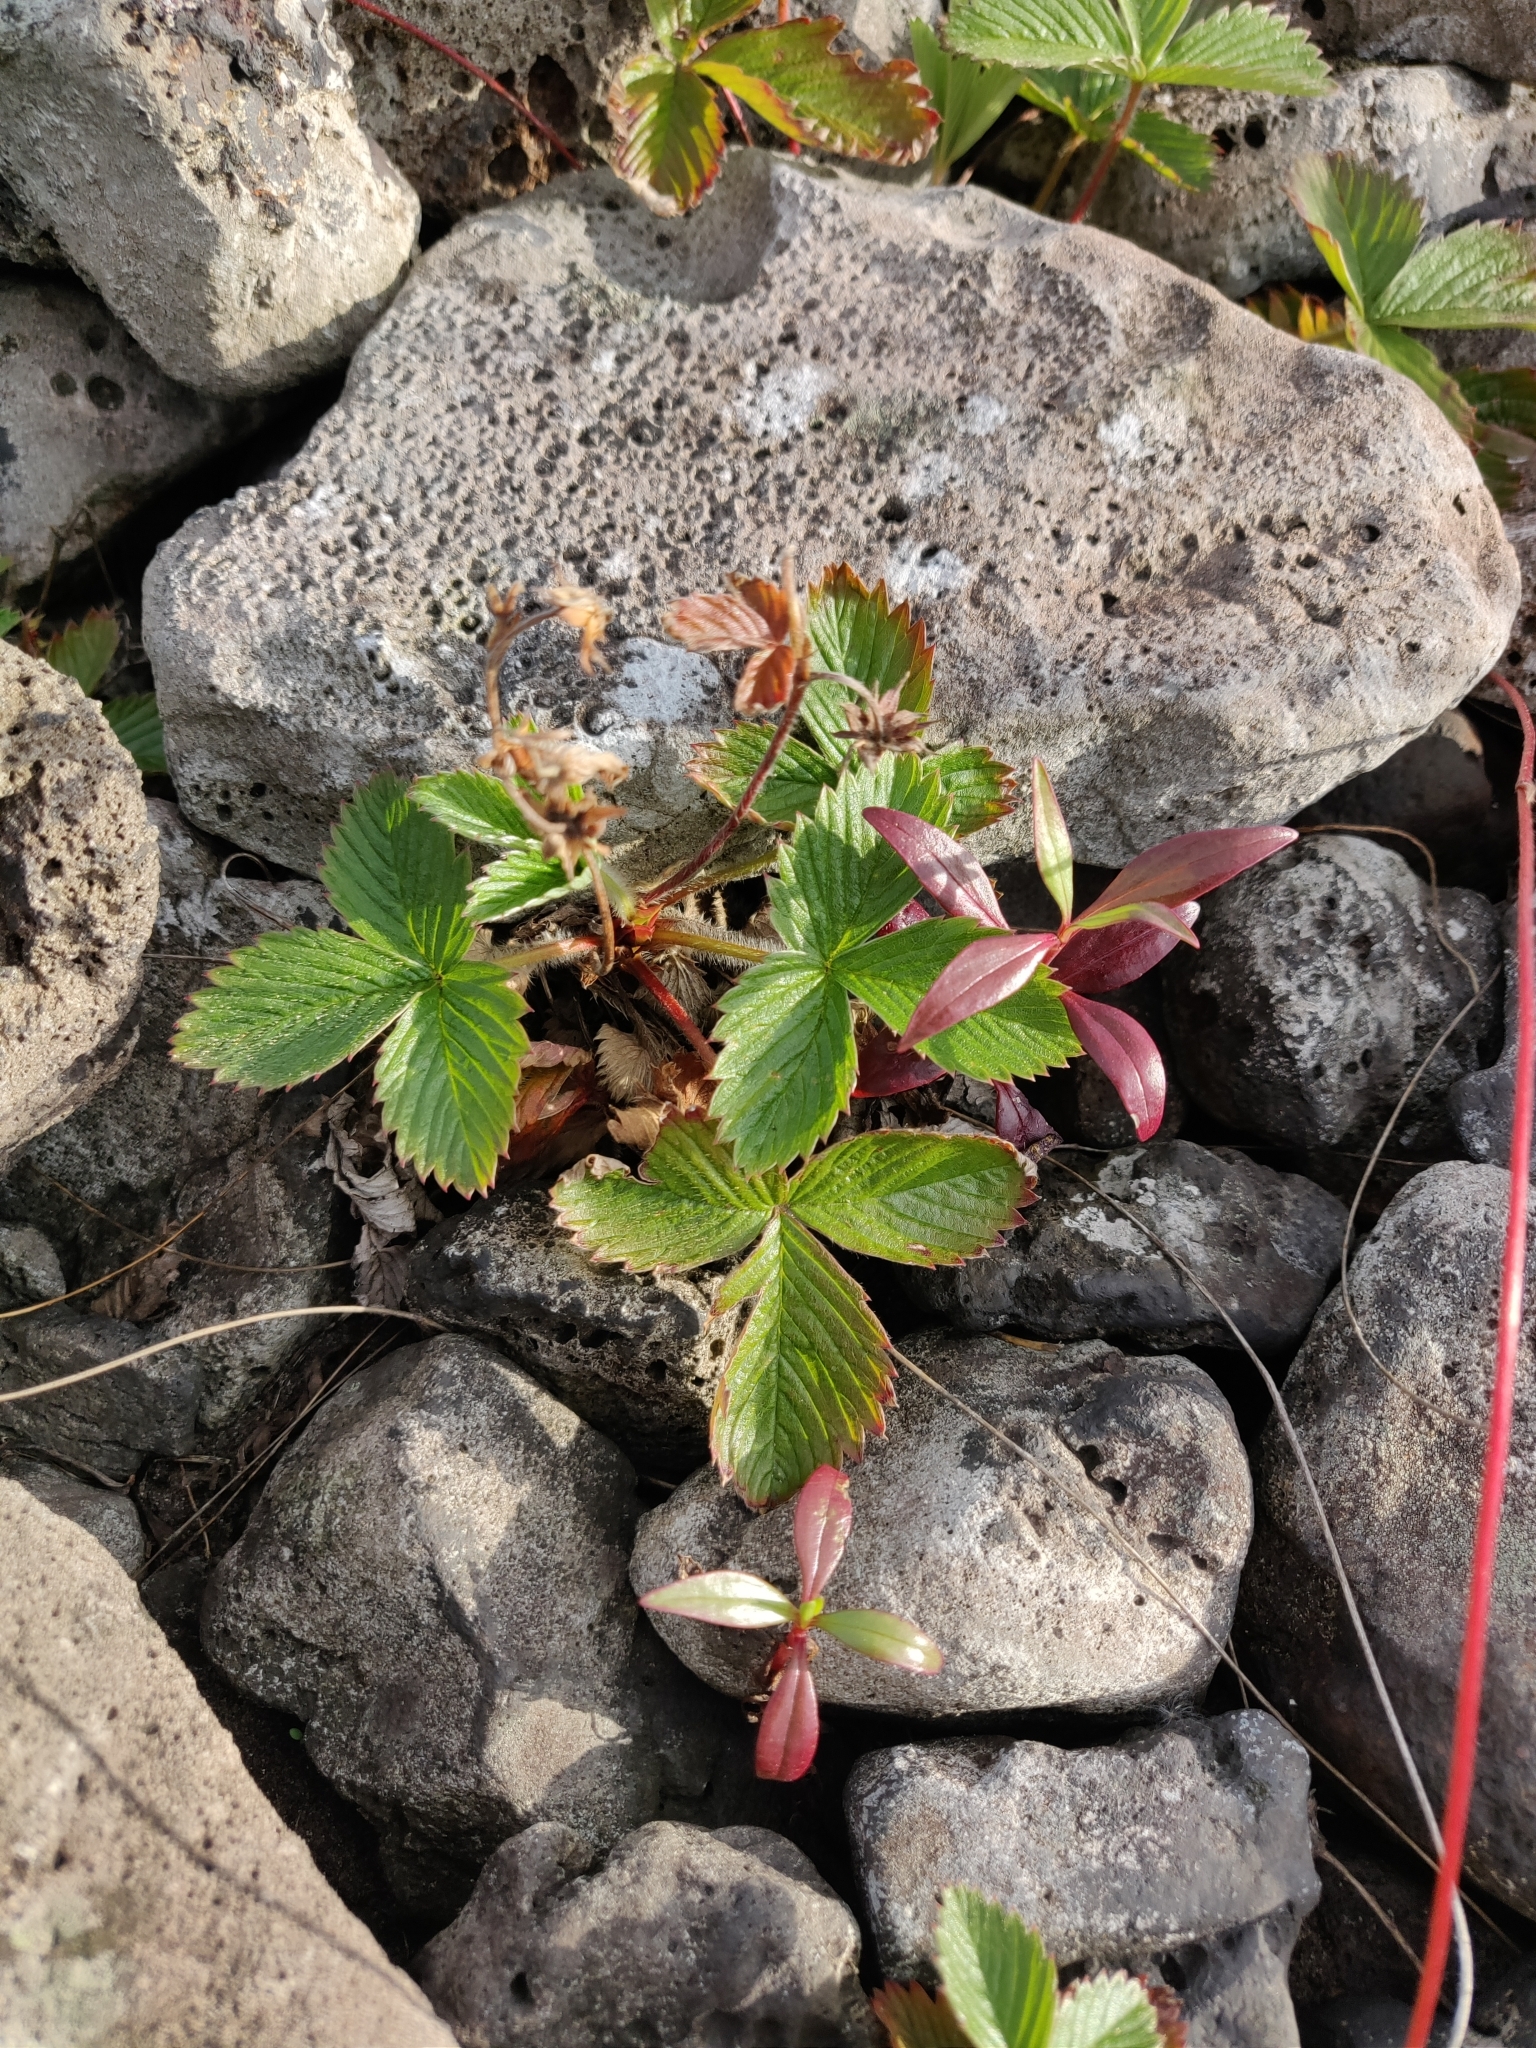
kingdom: Plantae
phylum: Tracheophyta
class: Magnoliopsida
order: Rosales
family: Rosaceae
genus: Fragaria
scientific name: Fragaria vesca
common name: Wild strawberry
